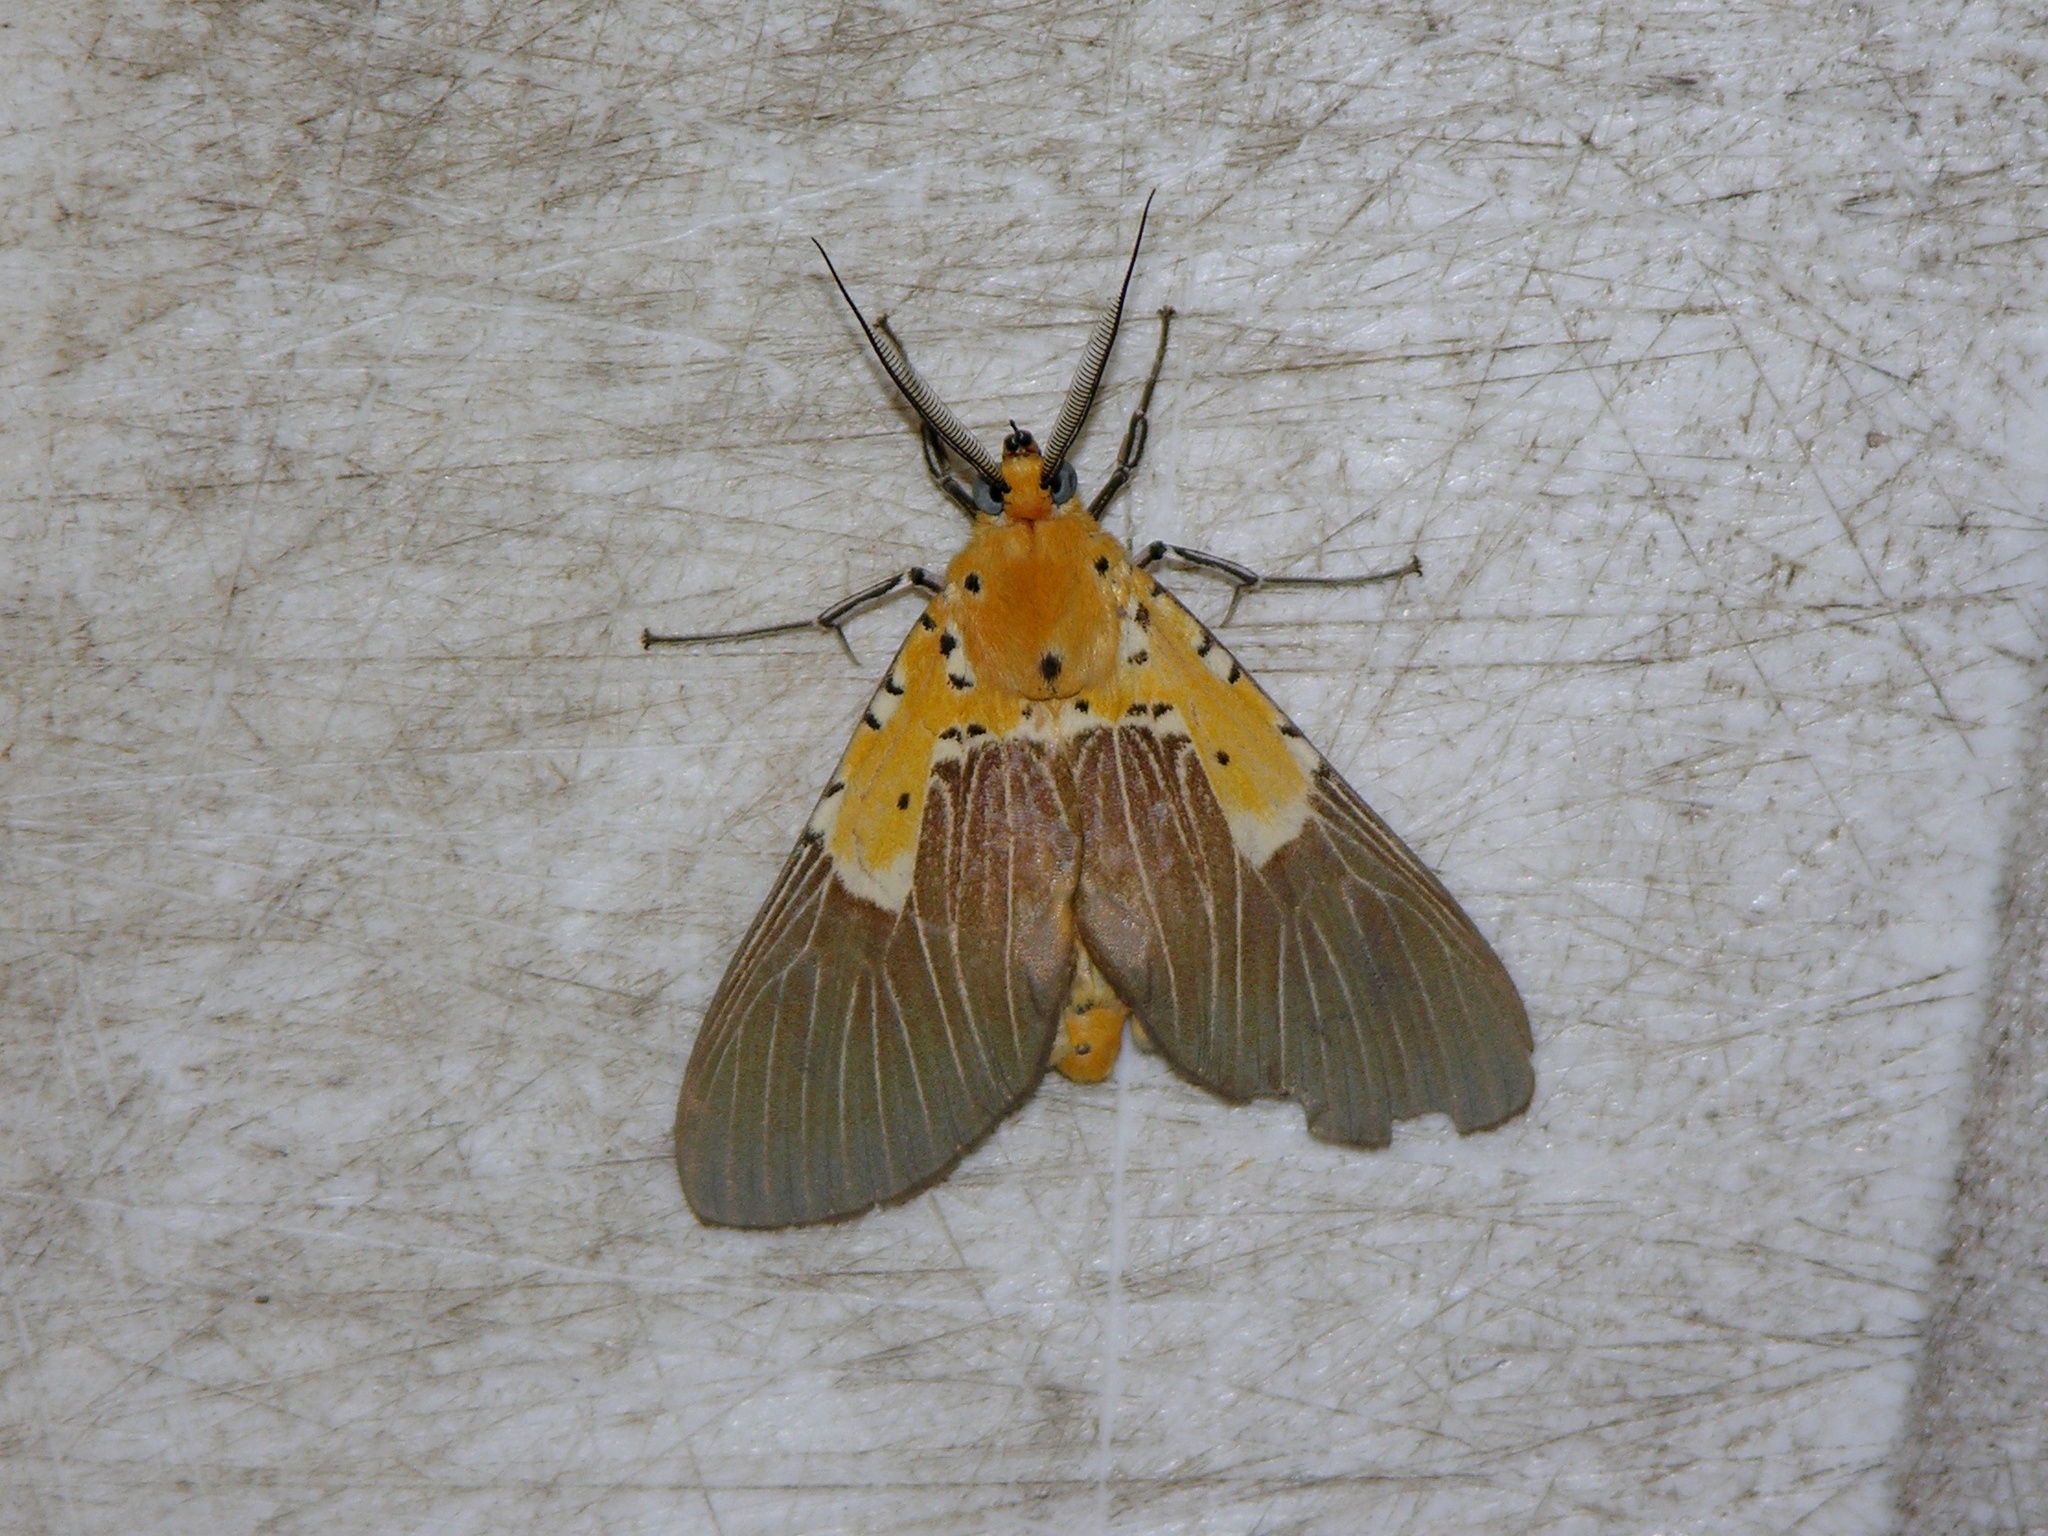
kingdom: Animalia
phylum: Arthropoda
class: Insecta
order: Lepidoptera
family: Erebidae
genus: Asota
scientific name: Asota speciosa
